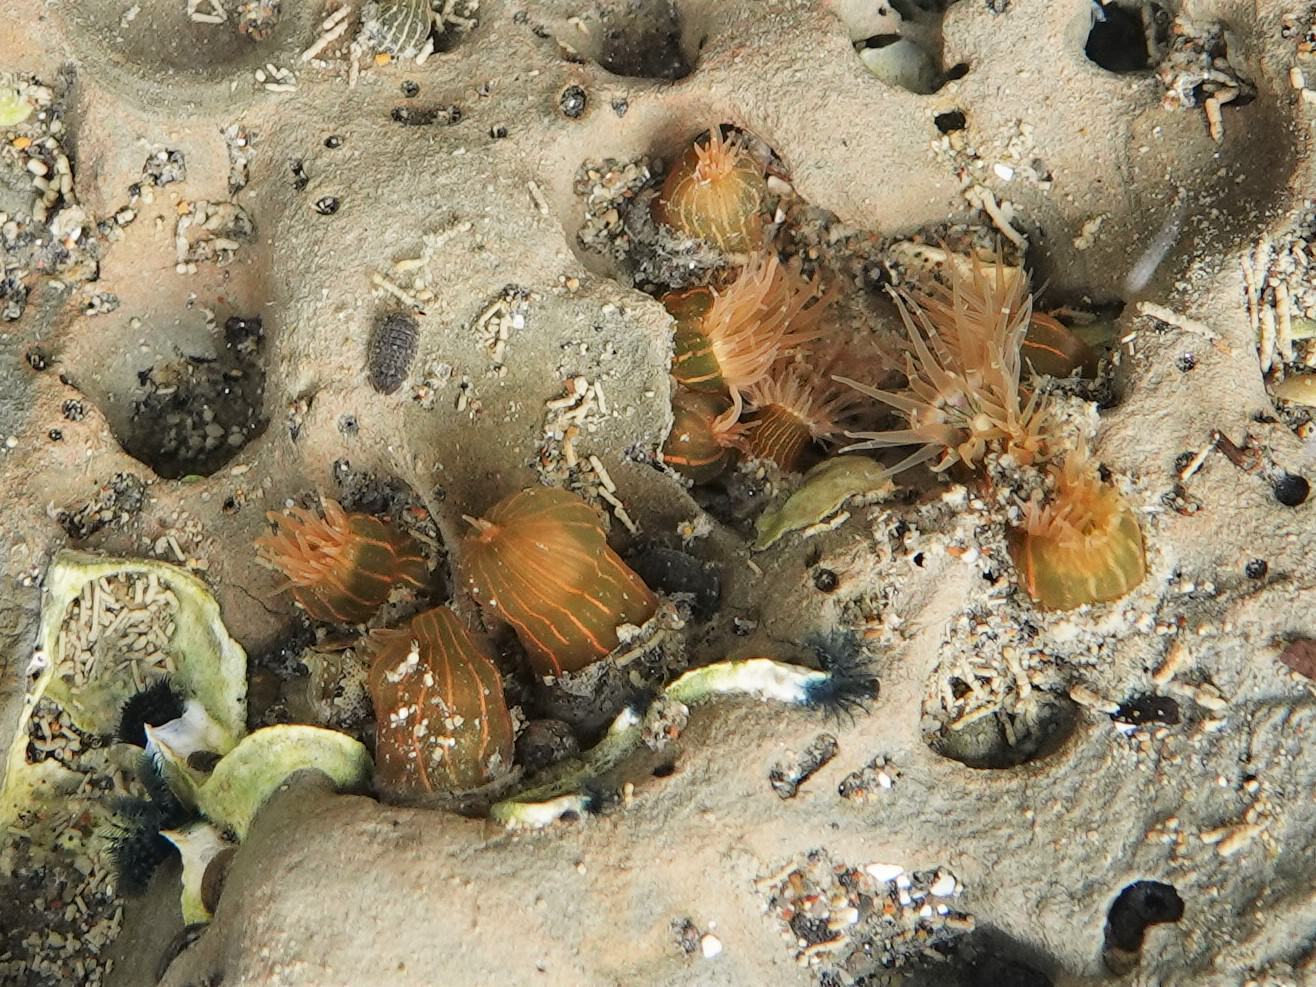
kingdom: Animalia
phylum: Cnidaria
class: Anthozoa
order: Actiniaria
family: Diadumenidae
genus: Diadumene
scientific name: Diadumene lineata
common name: Orange-striped anemone
